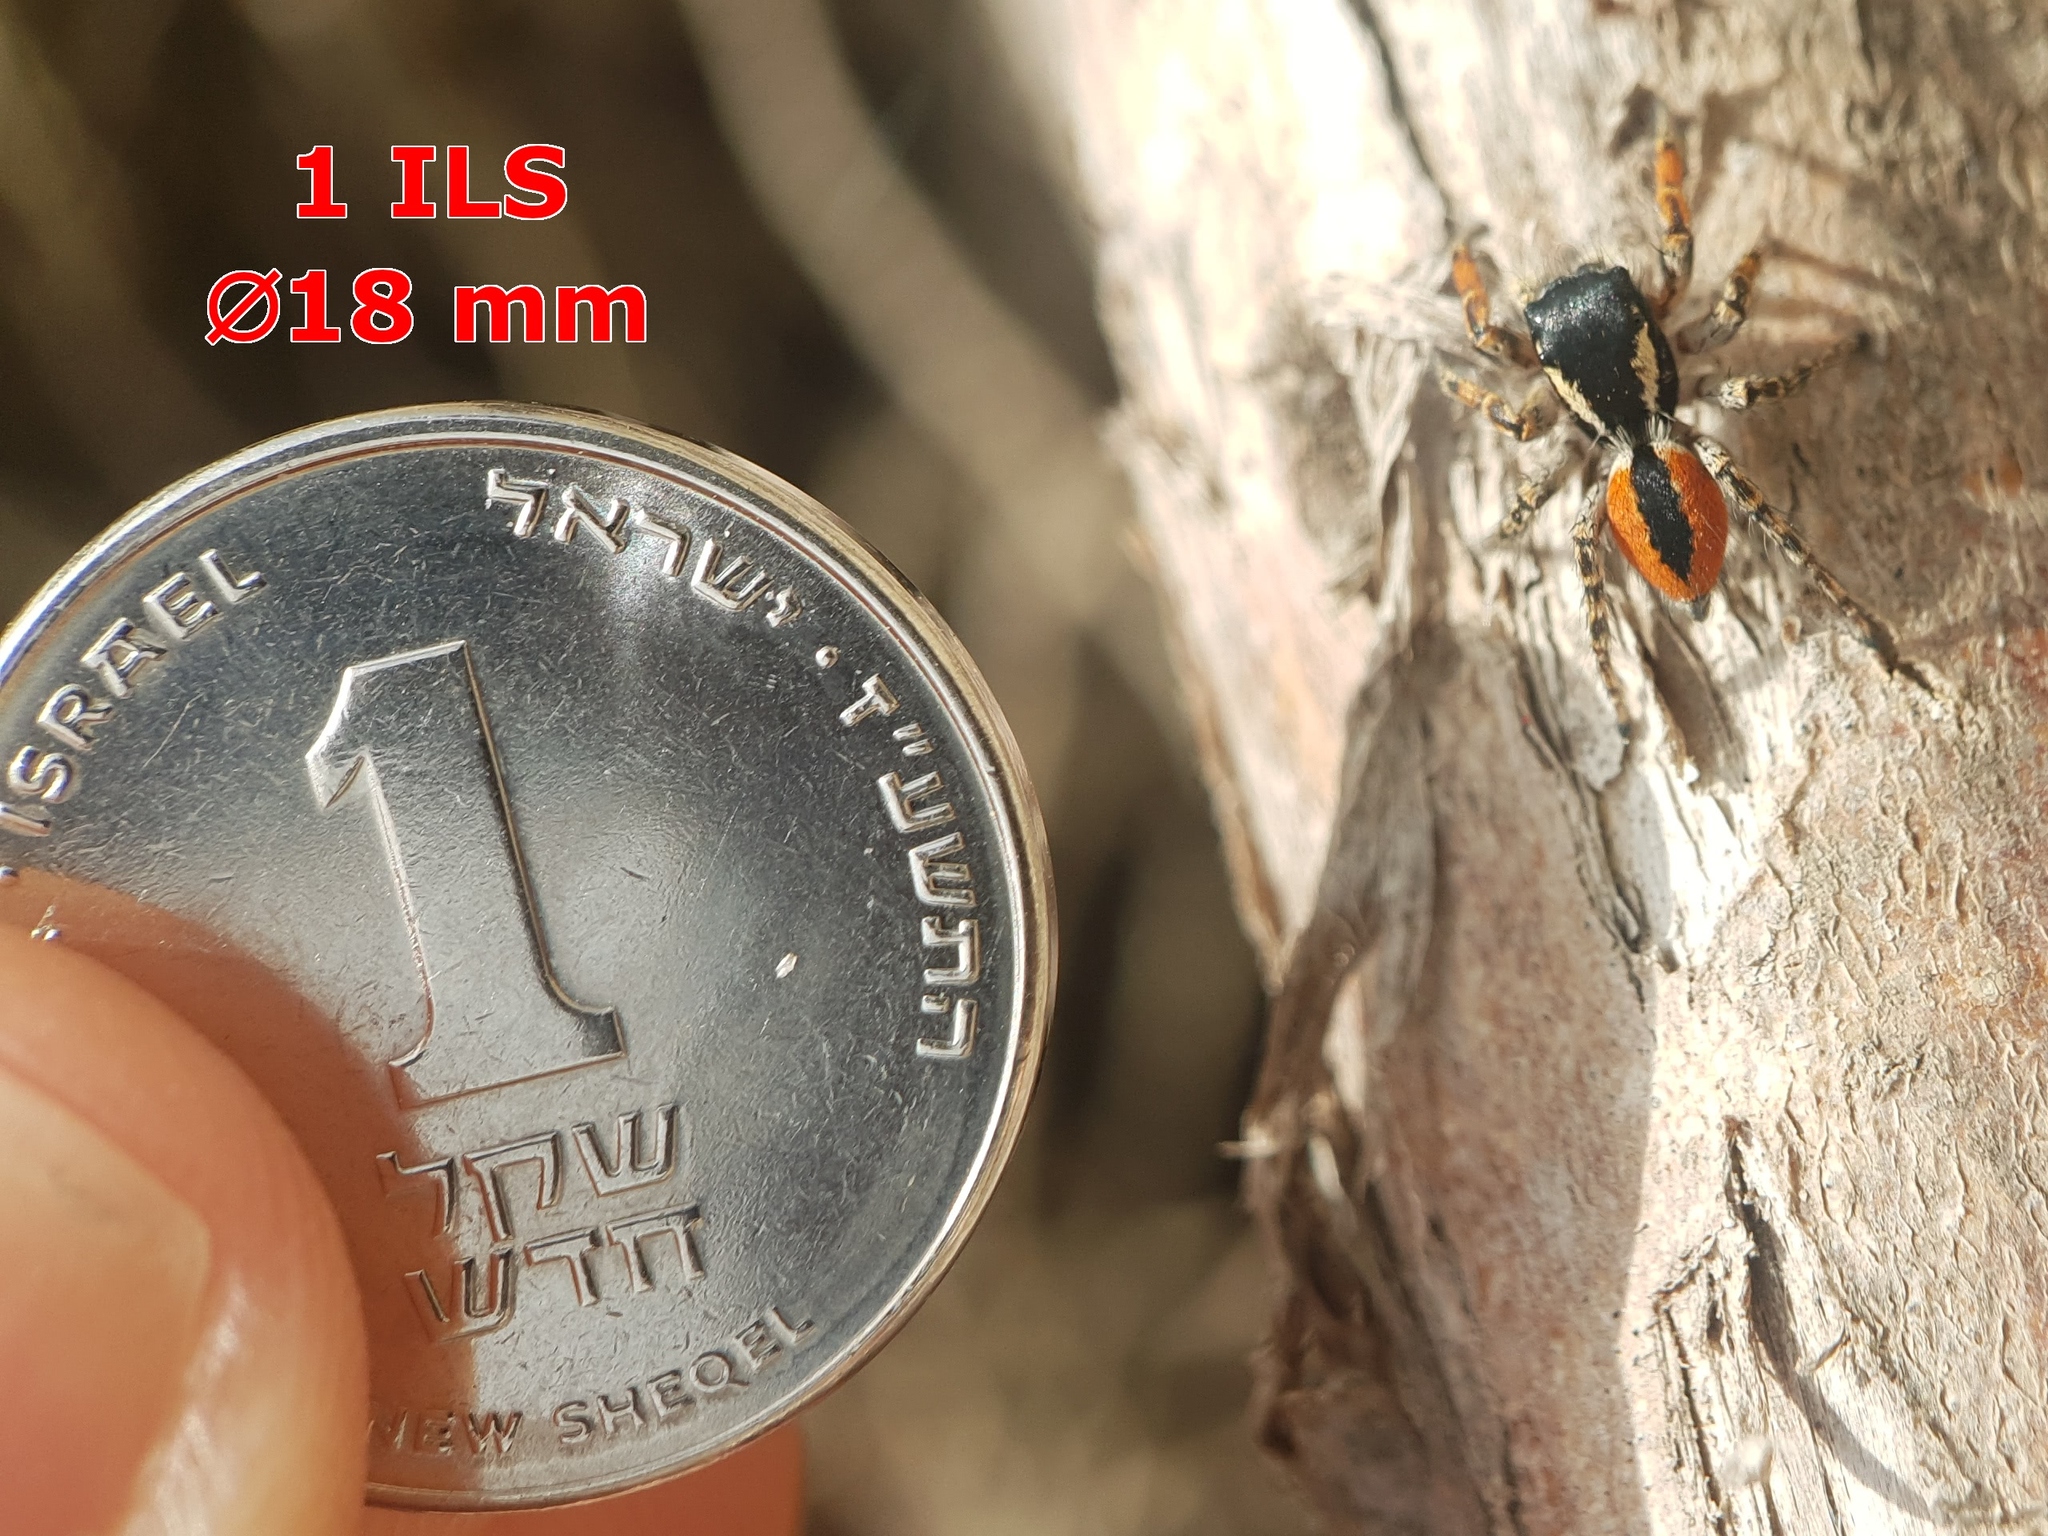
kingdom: Animalia
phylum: Arthropoda
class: Arachnida
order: Araneae
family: Salticidae
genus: Philaeus
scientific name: Philaeus chrysops
